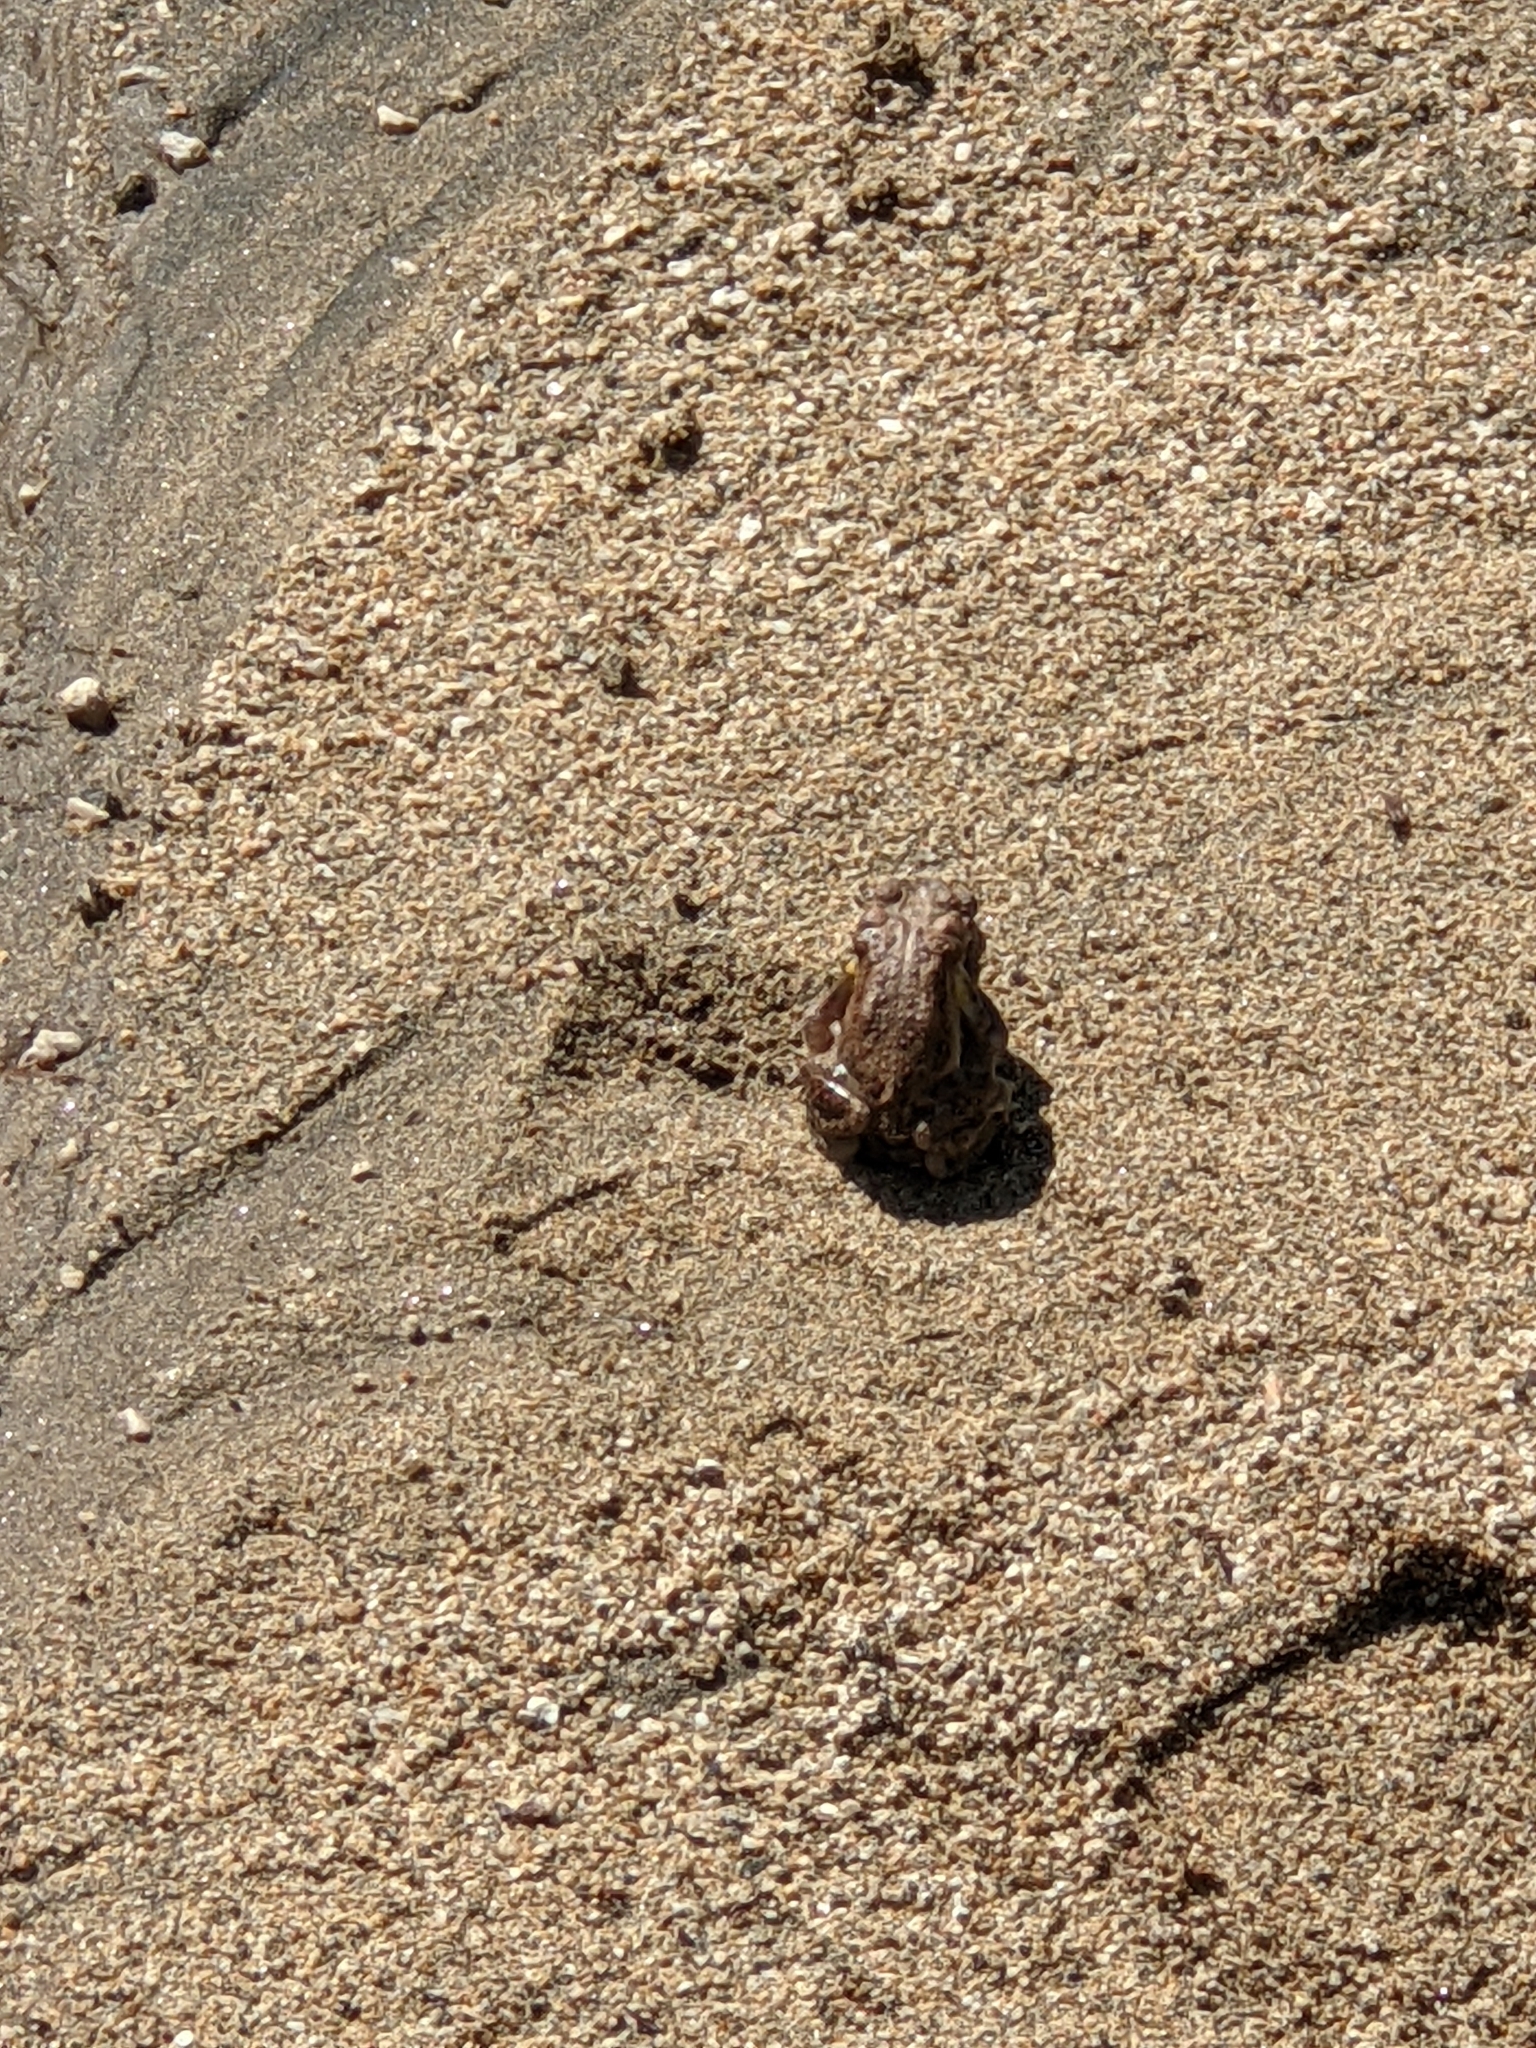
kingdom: Animalia
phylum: Chordata
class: Amphibia
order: Anura
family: Bufonidae
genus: Anaxyrus
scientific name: Anaxyrus punctatus
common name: Red-spotted toad
